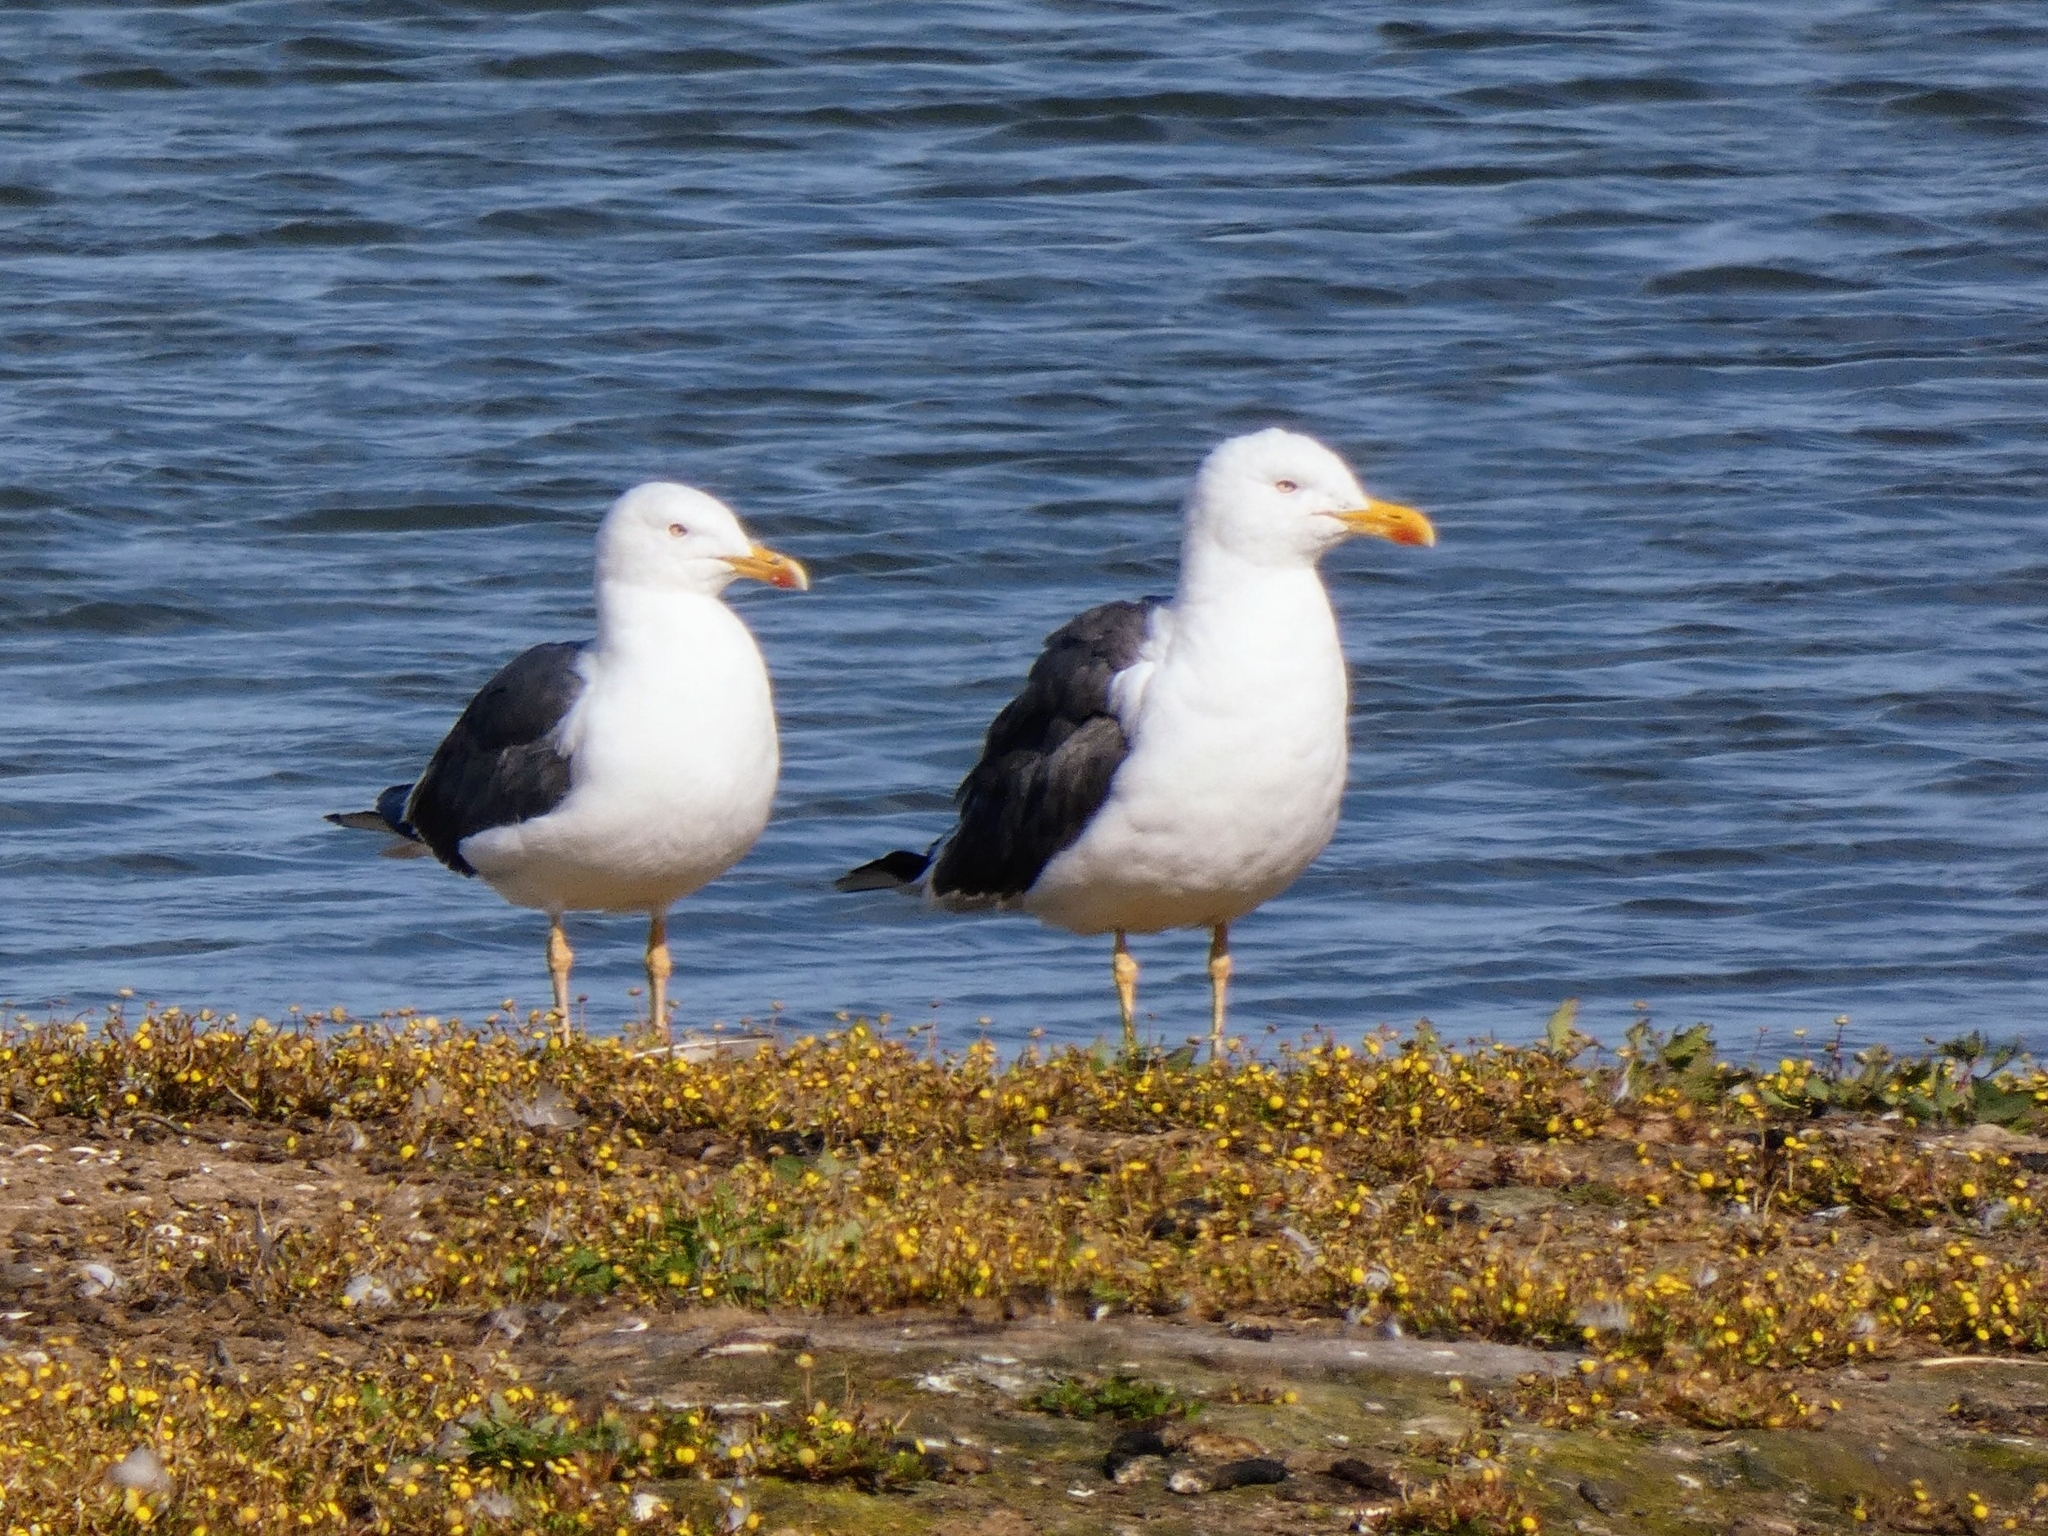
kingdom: Animalia
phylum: Chordata
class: Aves
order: Charadriiformes
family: Laridae
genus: Larus
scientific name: Larus fuscus
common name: Lesser black-backed gull
